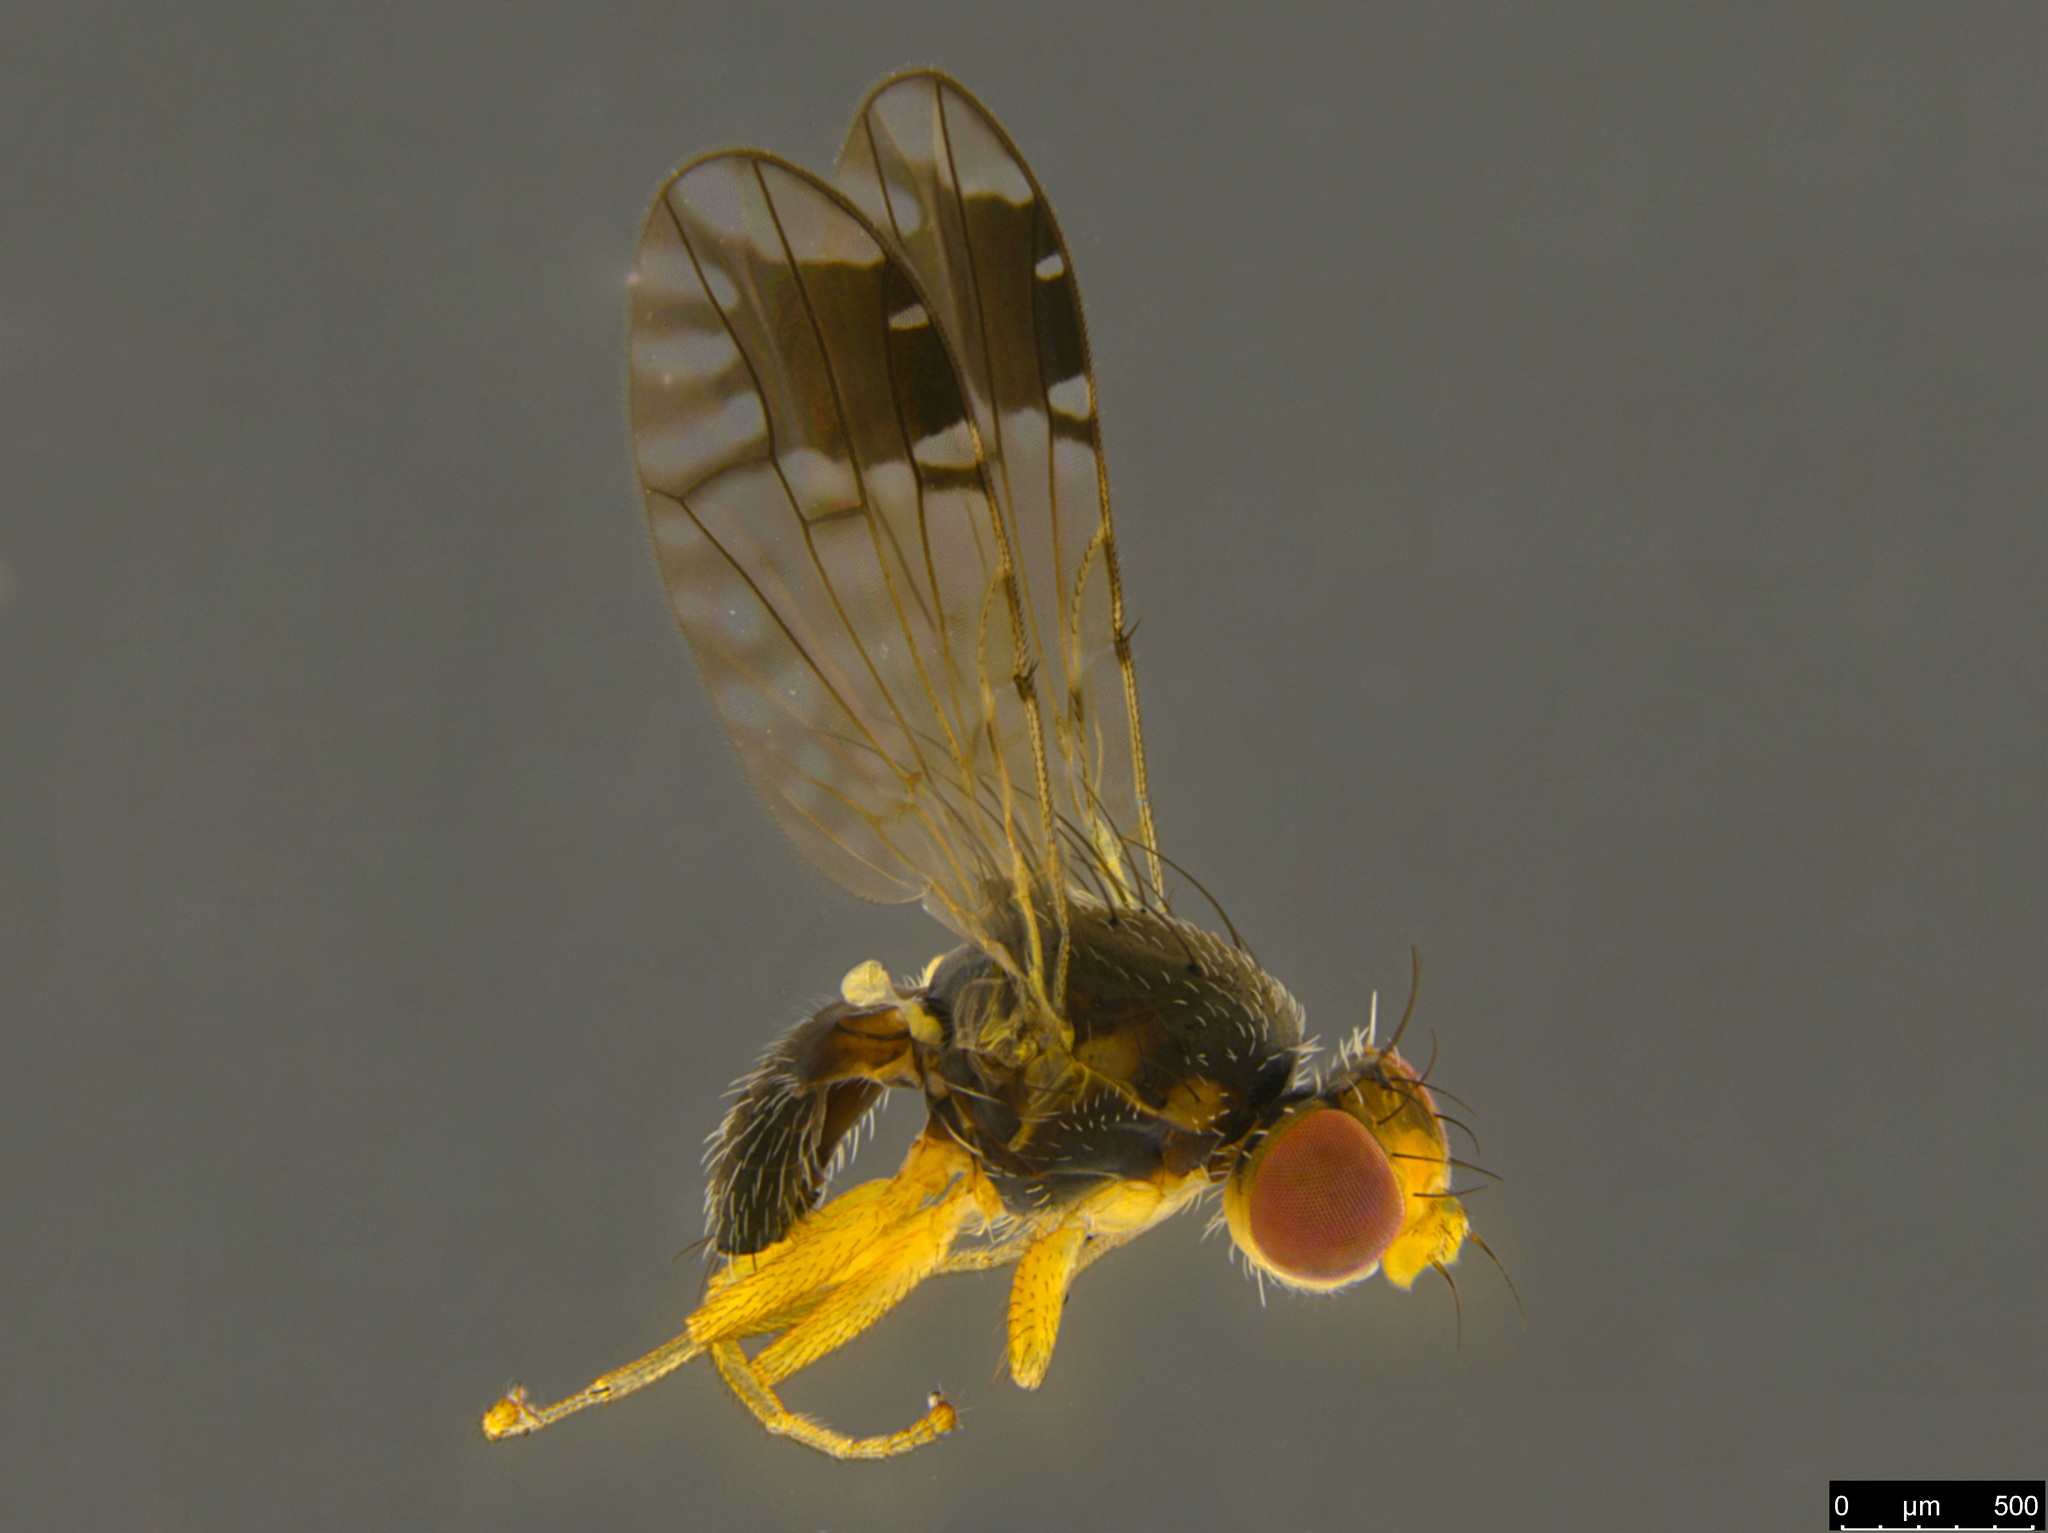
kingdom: Animalia
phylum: Arthropoda
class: Insecta
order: Diptera
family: Tephritidae
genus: Austrotephritis
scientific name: Austrotephritis
